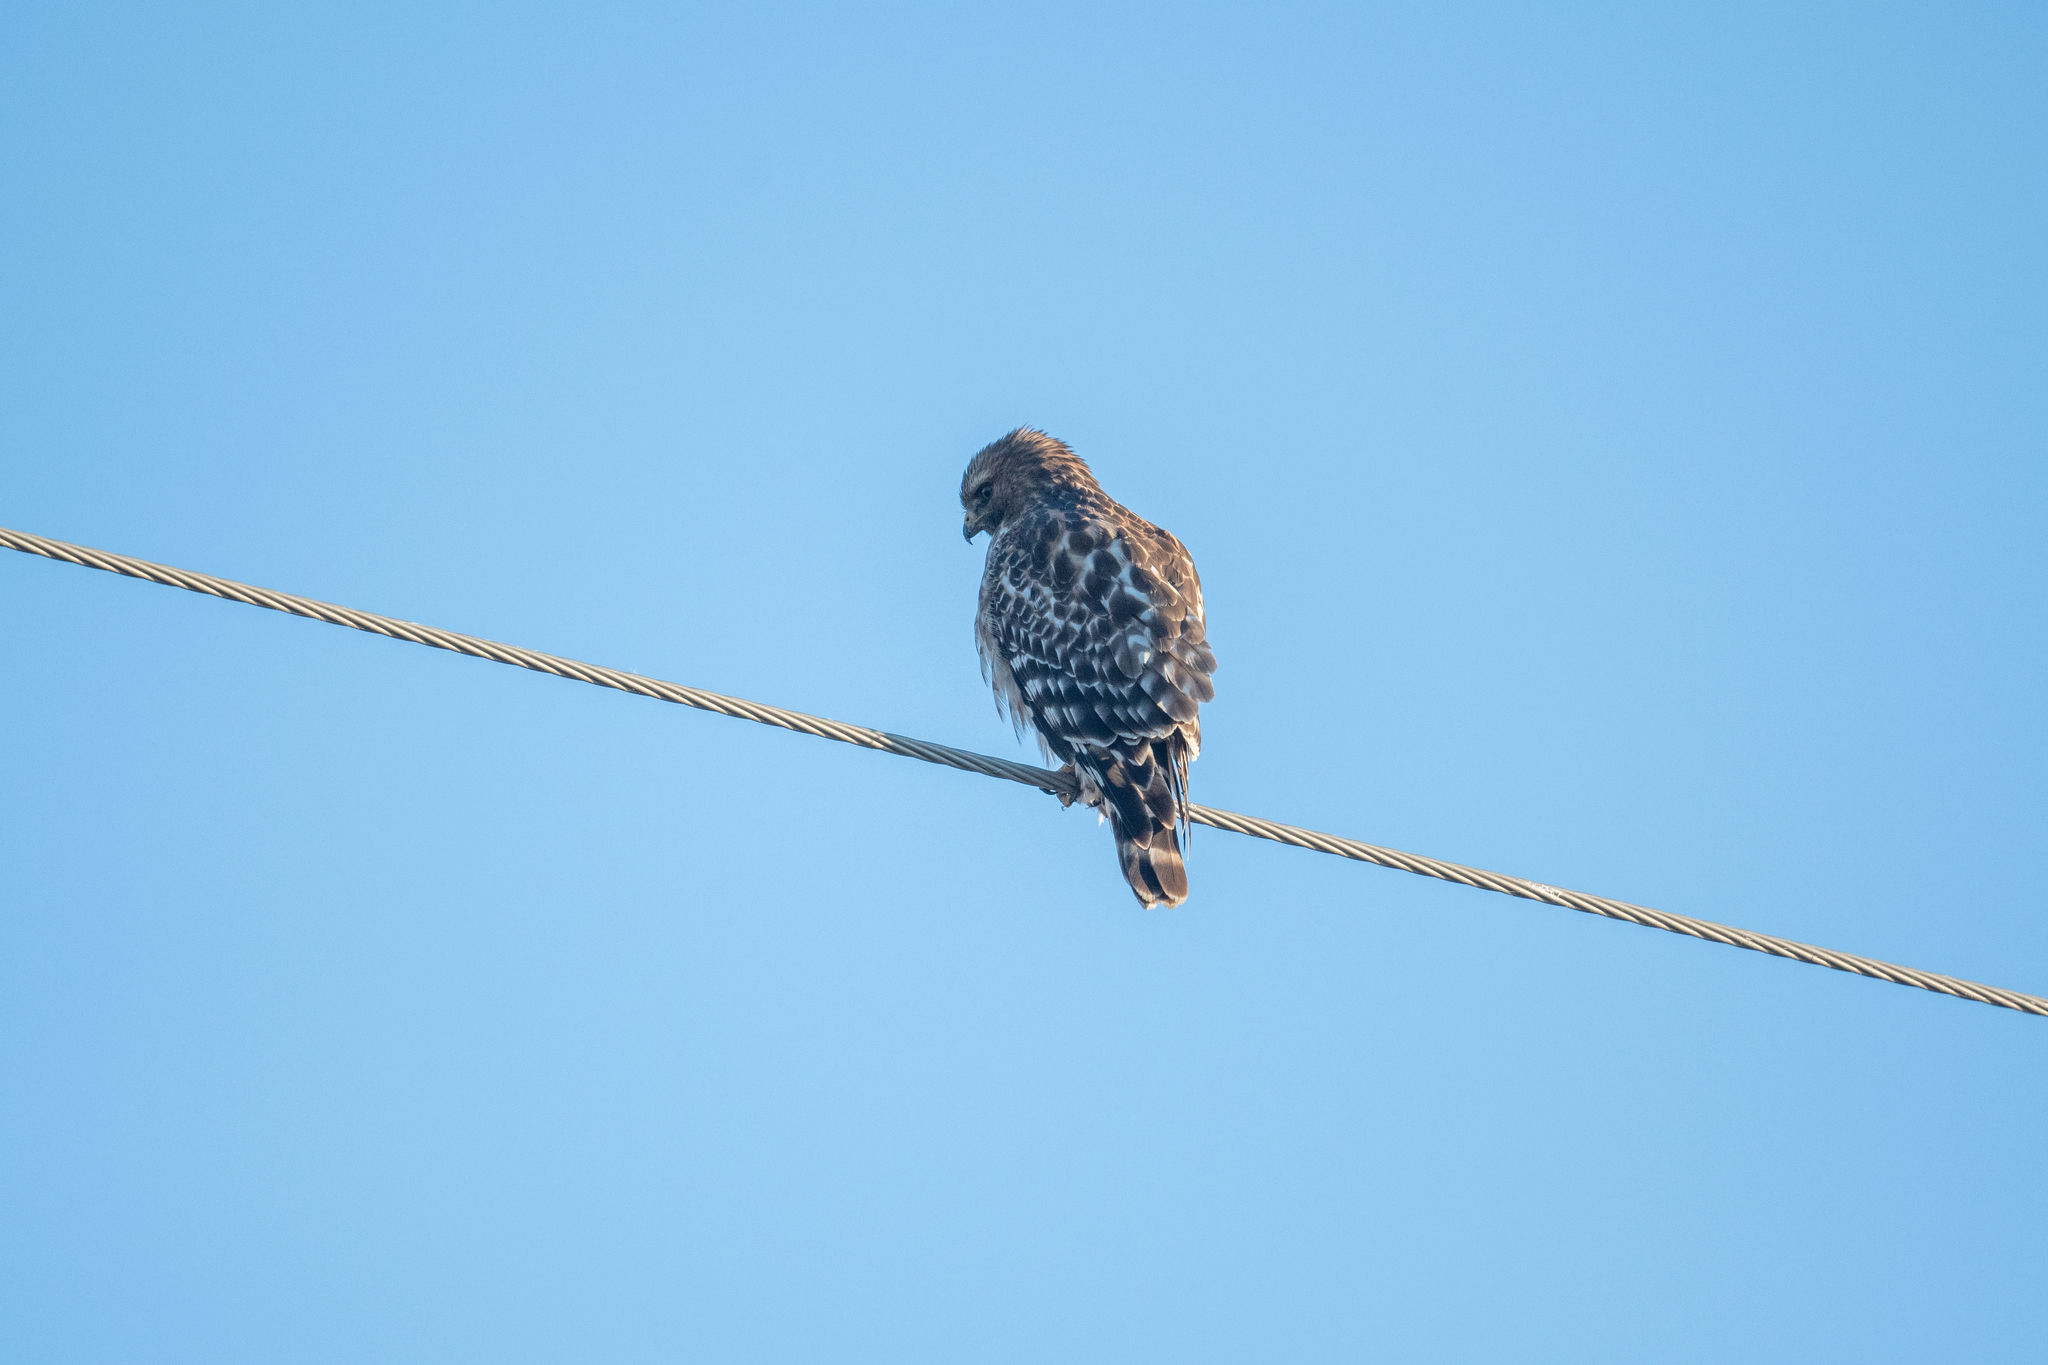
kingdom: Animalia
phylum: Chordata
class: Aves
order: Accipitriformes
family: Accipitridae
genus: Buteo
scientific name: Buteo lineatus
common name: Red-shouldered hawk
